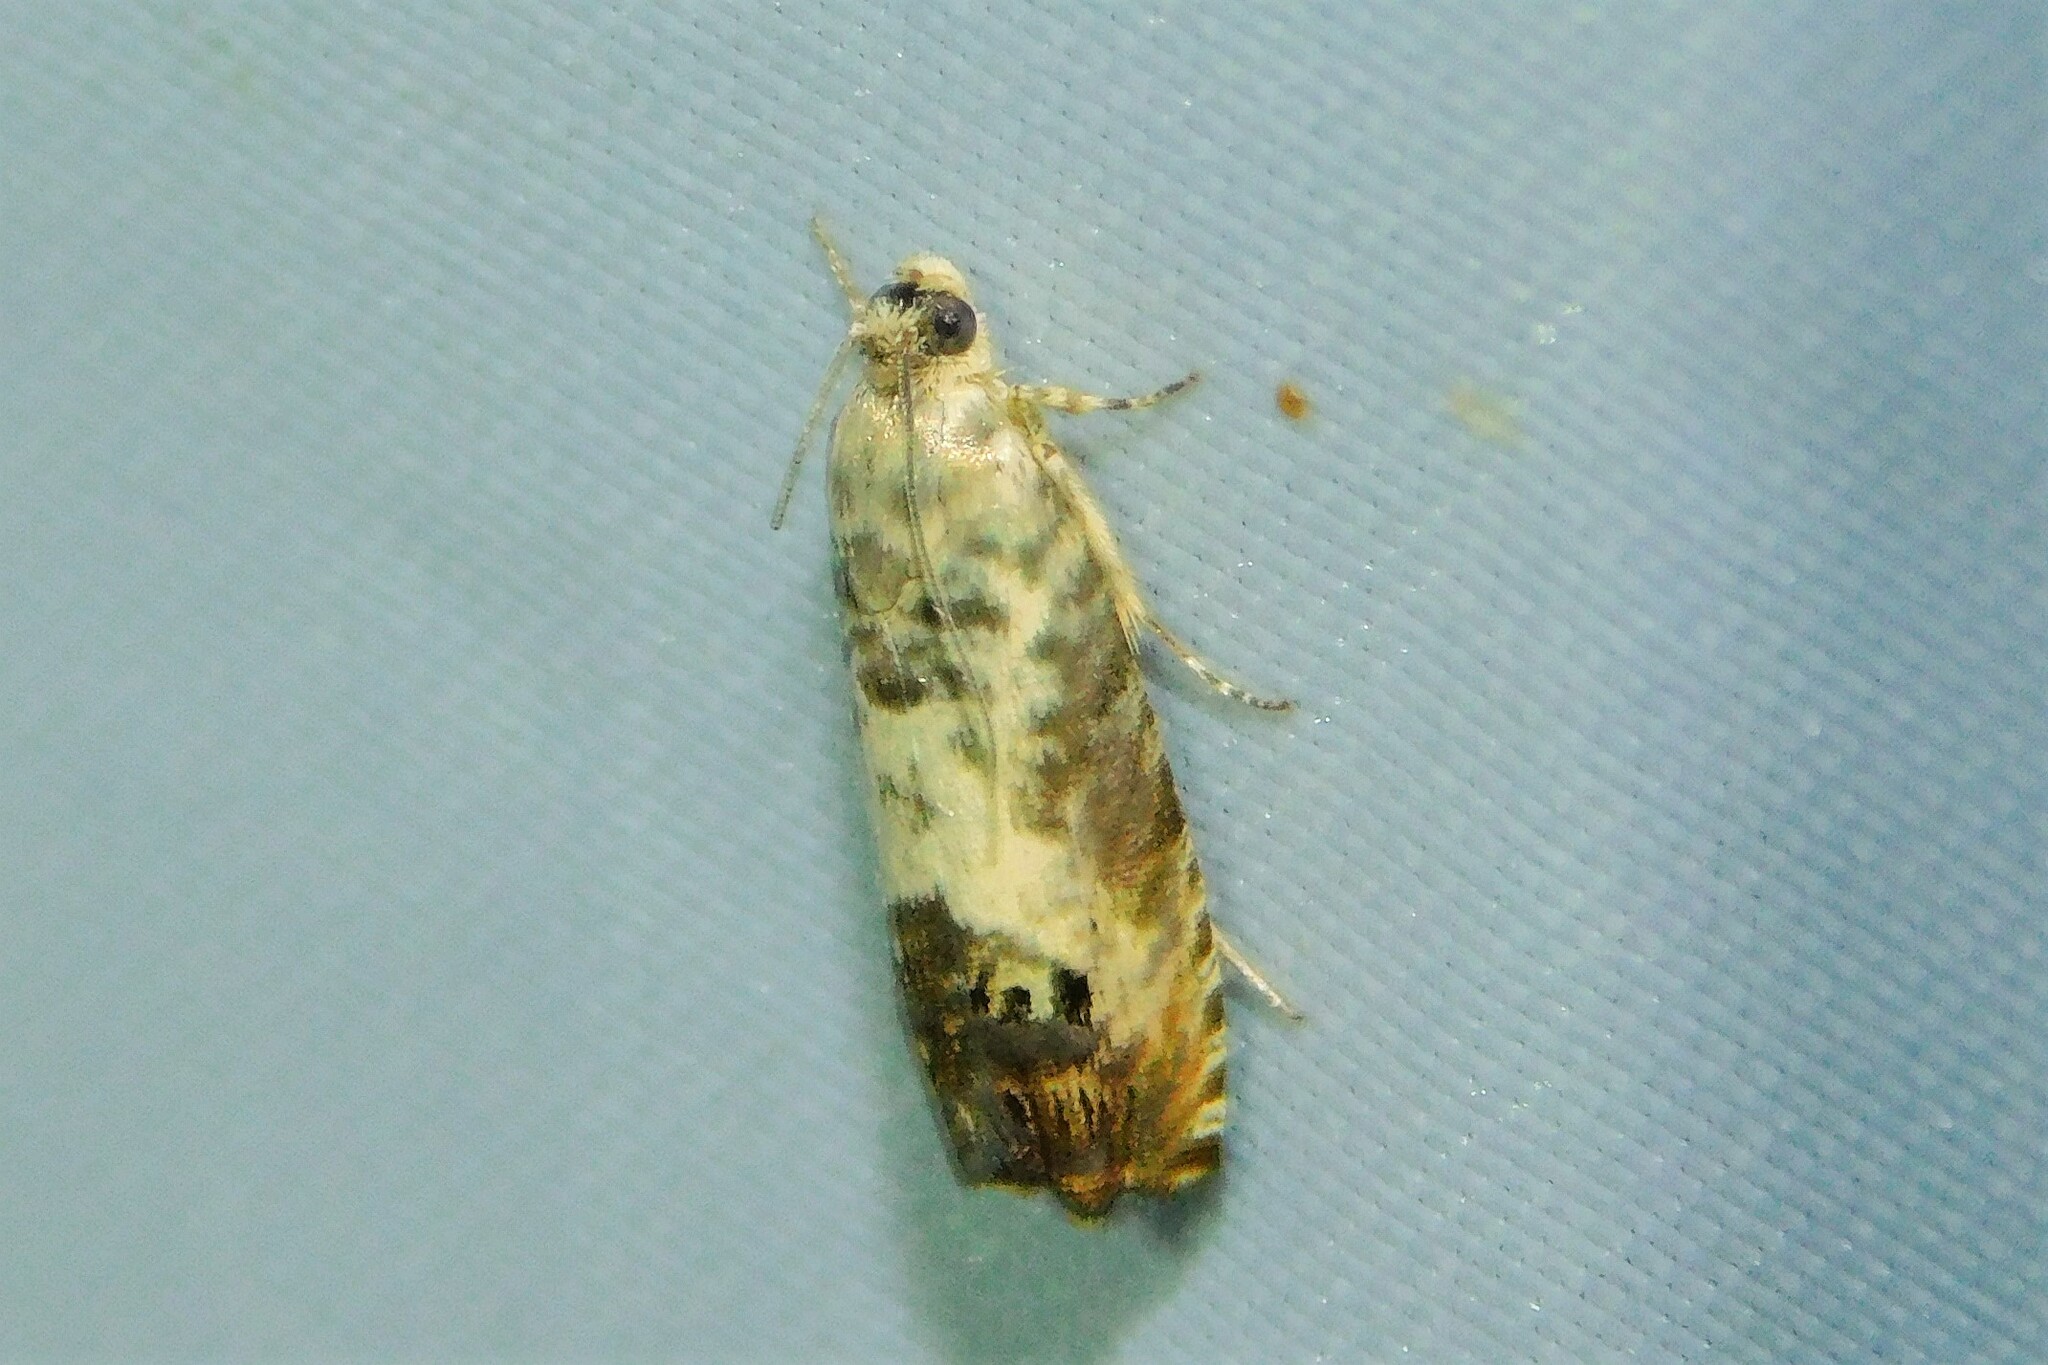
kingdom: Animalia
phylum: Arthropoda
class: Insecta
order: Lepidoptera
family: Tortricidae
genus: Pammene
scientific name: Pammene fasciana
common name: Acorn piercer
